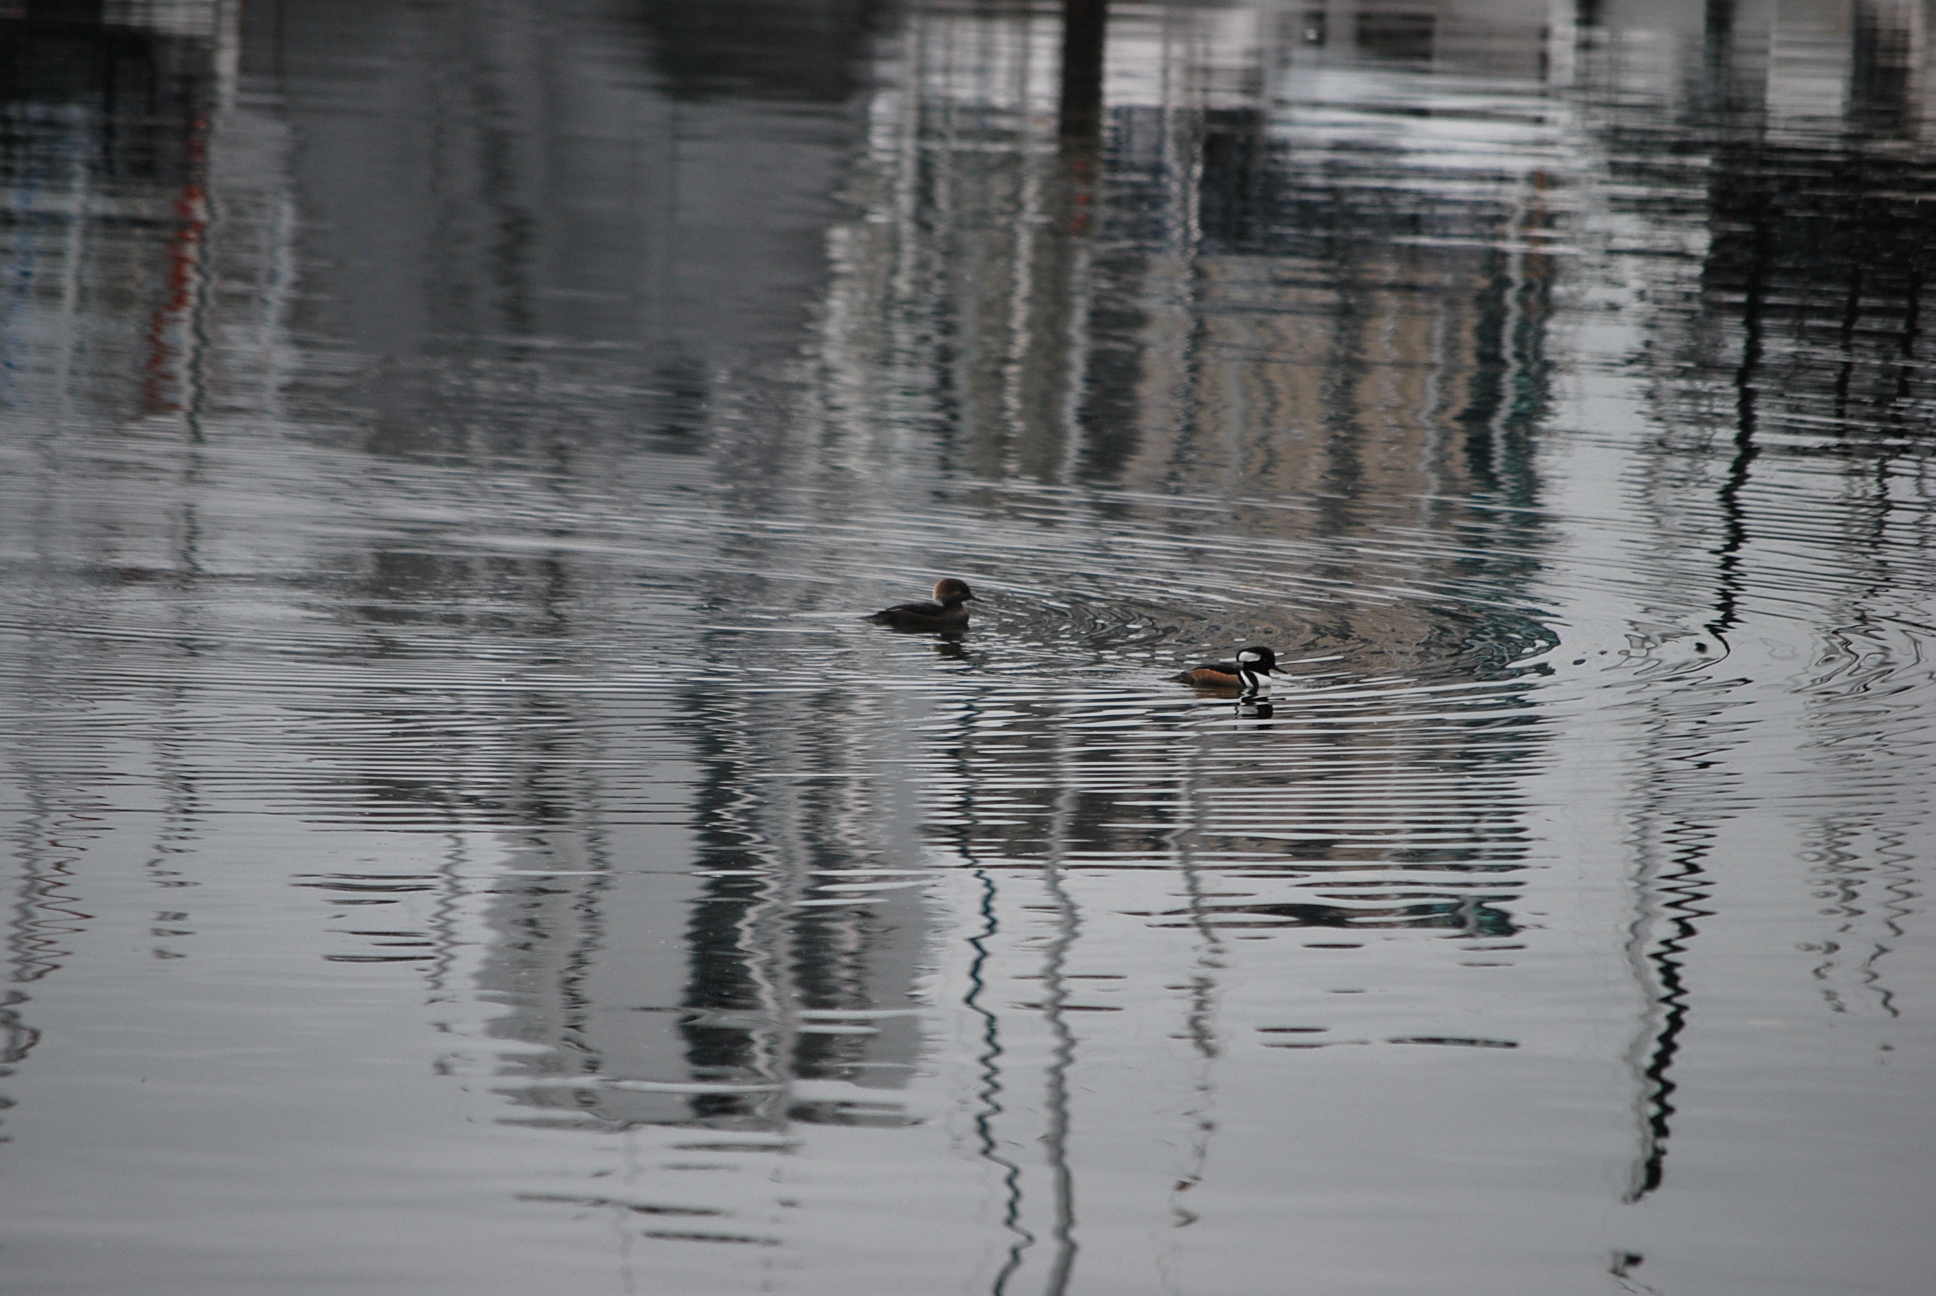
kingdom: Animalia
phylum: Chordata
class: Aves
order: Anseriformes
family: Anatidae
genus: Lophodytes
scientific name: Lophodytes cucullatus
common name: Hooded merganser
